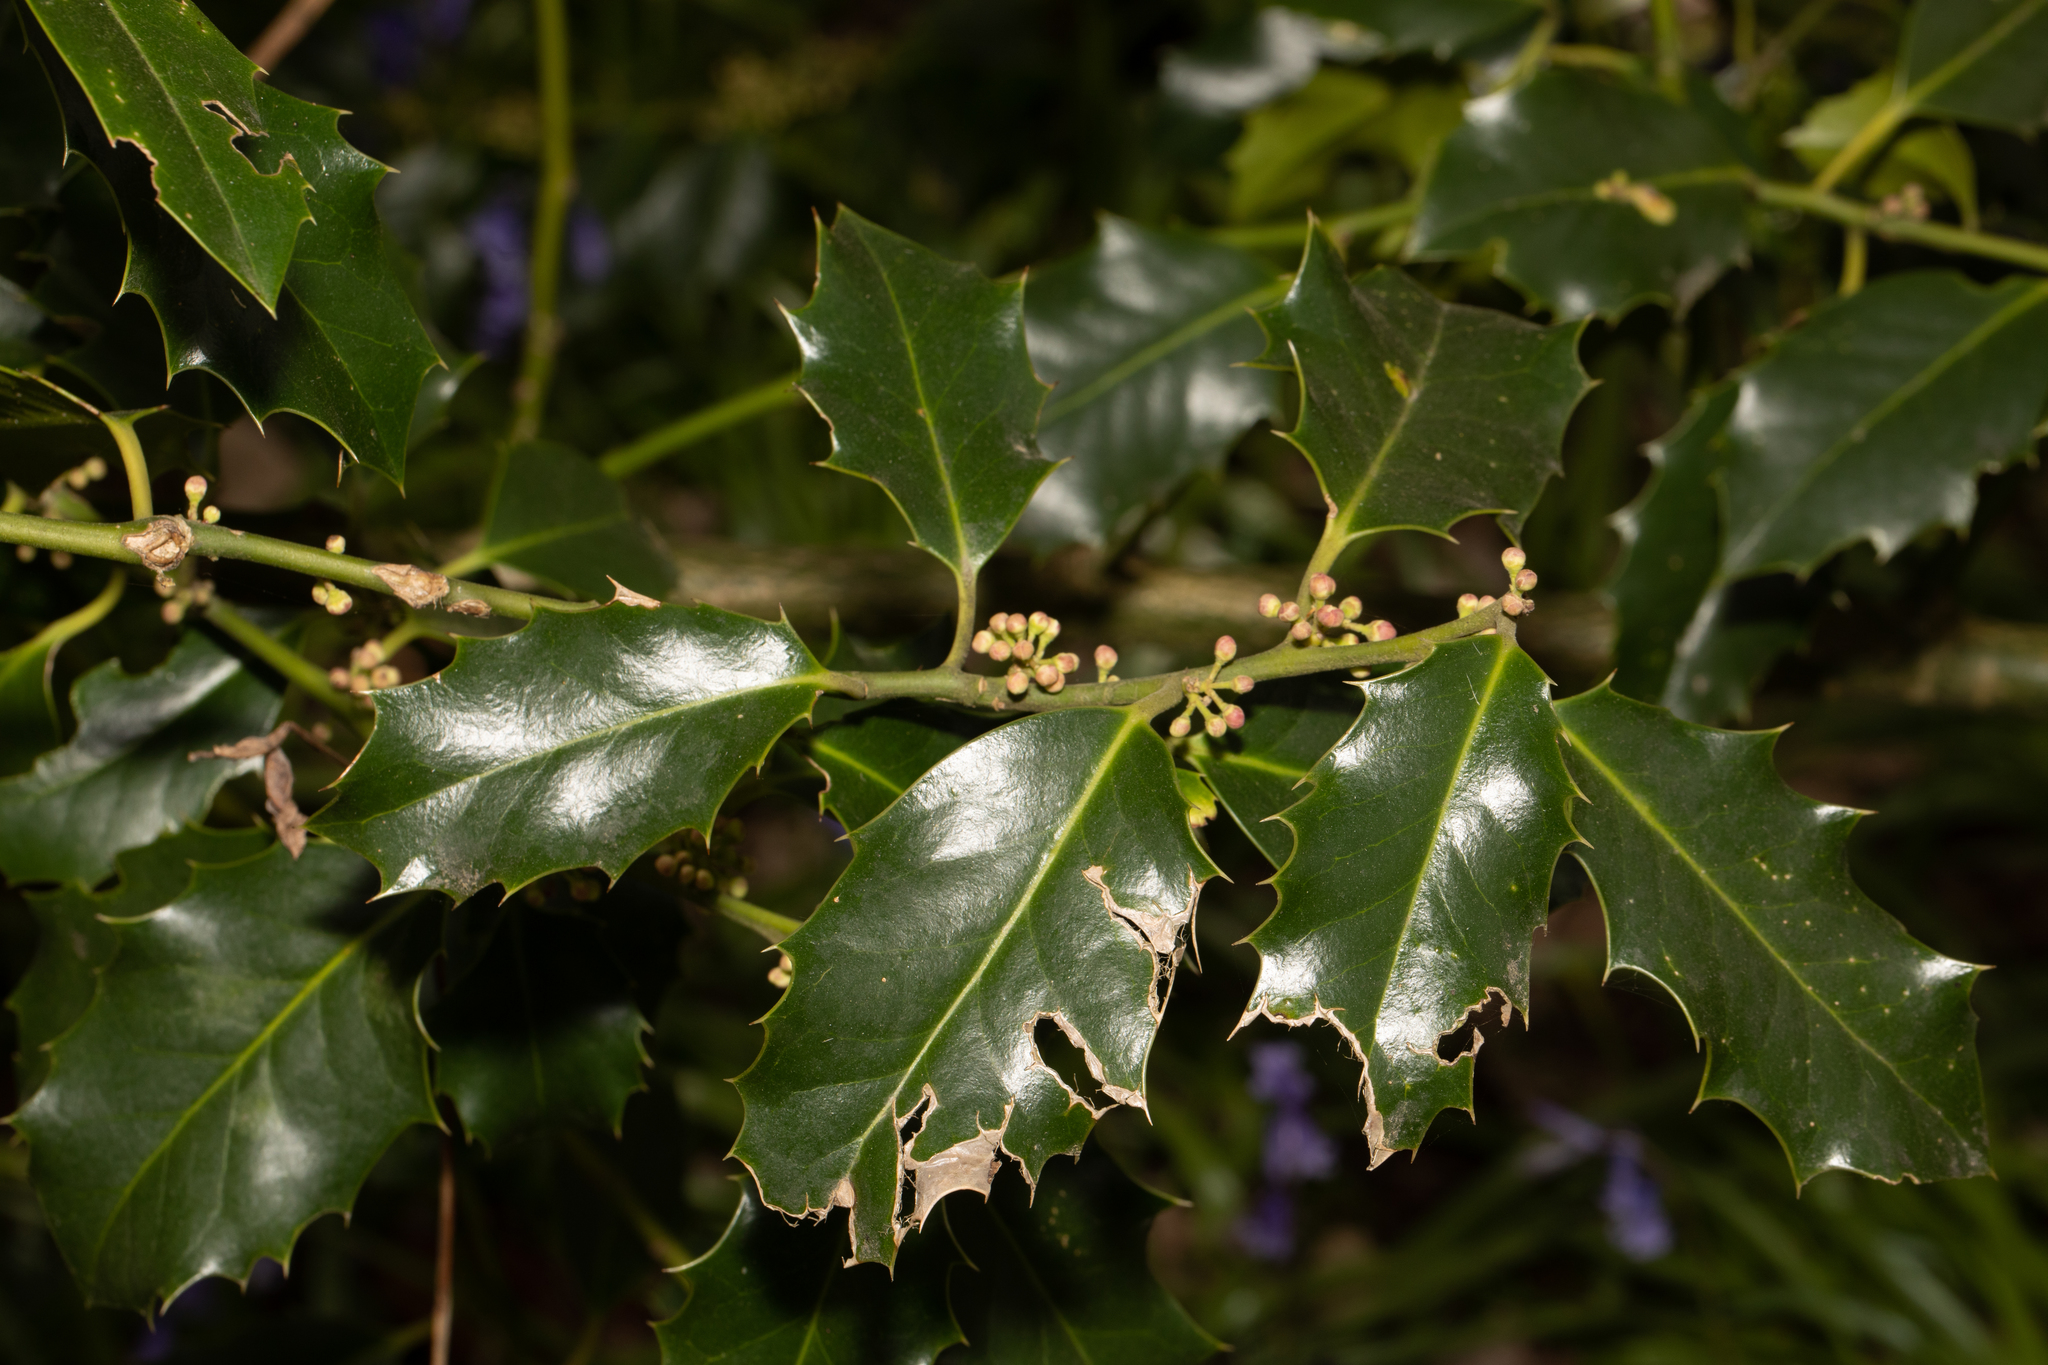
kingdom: Plantae
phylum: Tracheophyta
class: Magnoliopsida
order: Aquifoliales
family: Aquifoliaceae
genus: Ilex
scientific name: Ilex aquifolium
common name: English holly
